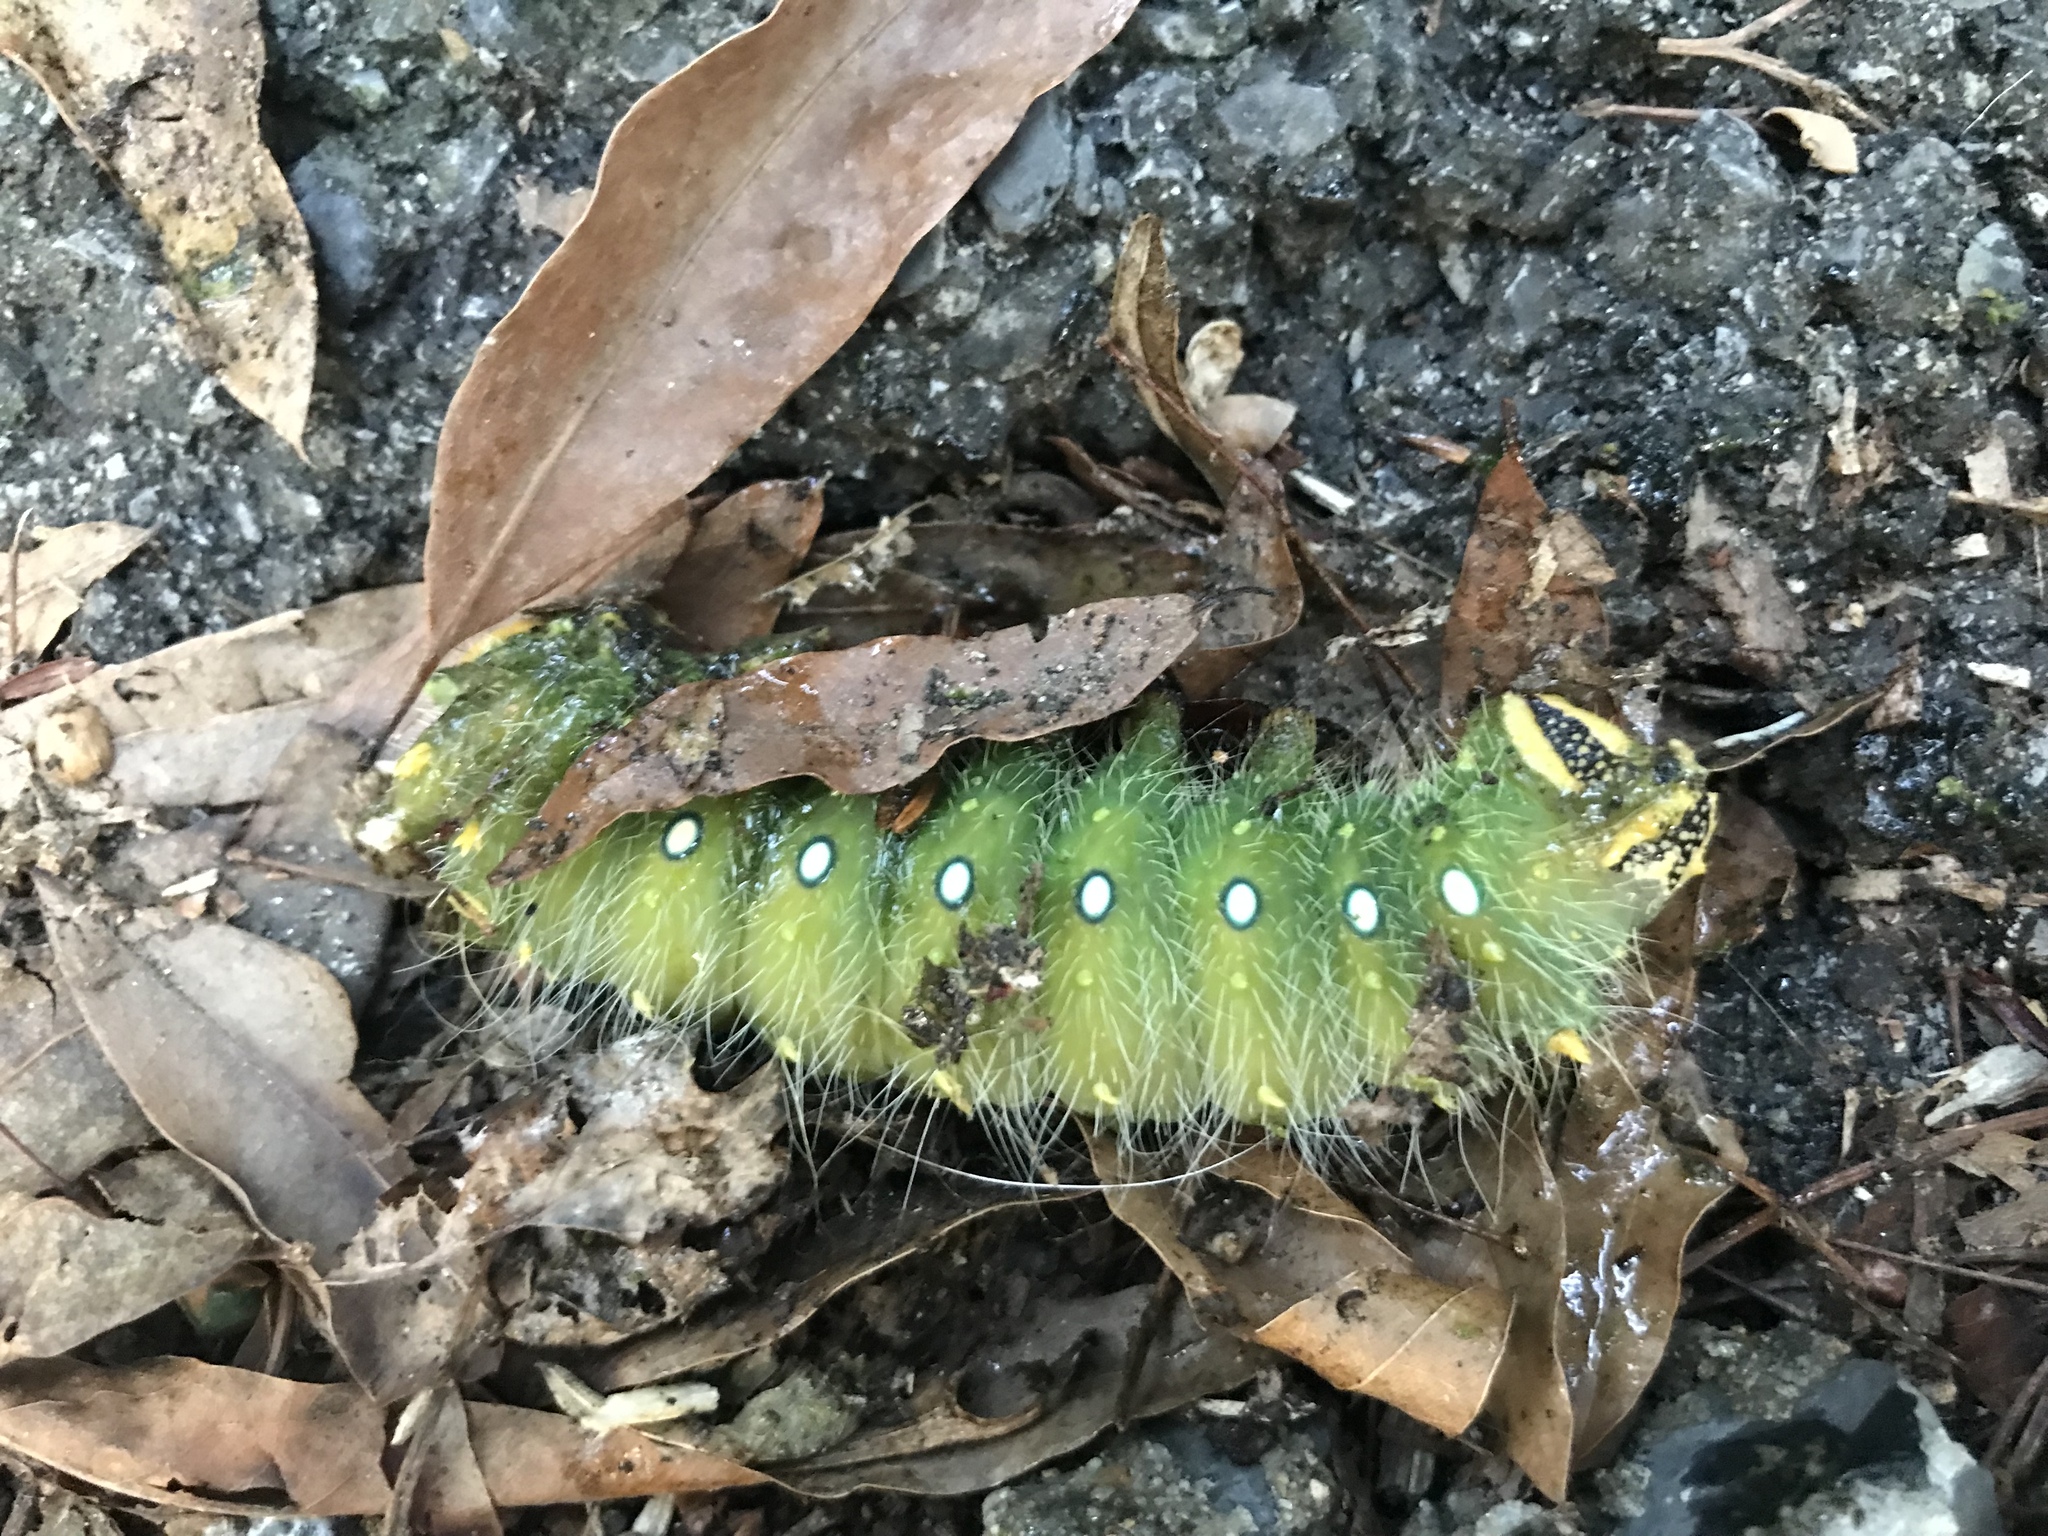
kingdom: Animalia
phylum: Arthropoda
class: Insecta
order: Lepidoptera
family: Saturniidae
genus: Eacles
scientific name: Eacles imperialis
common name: Imperial moth
